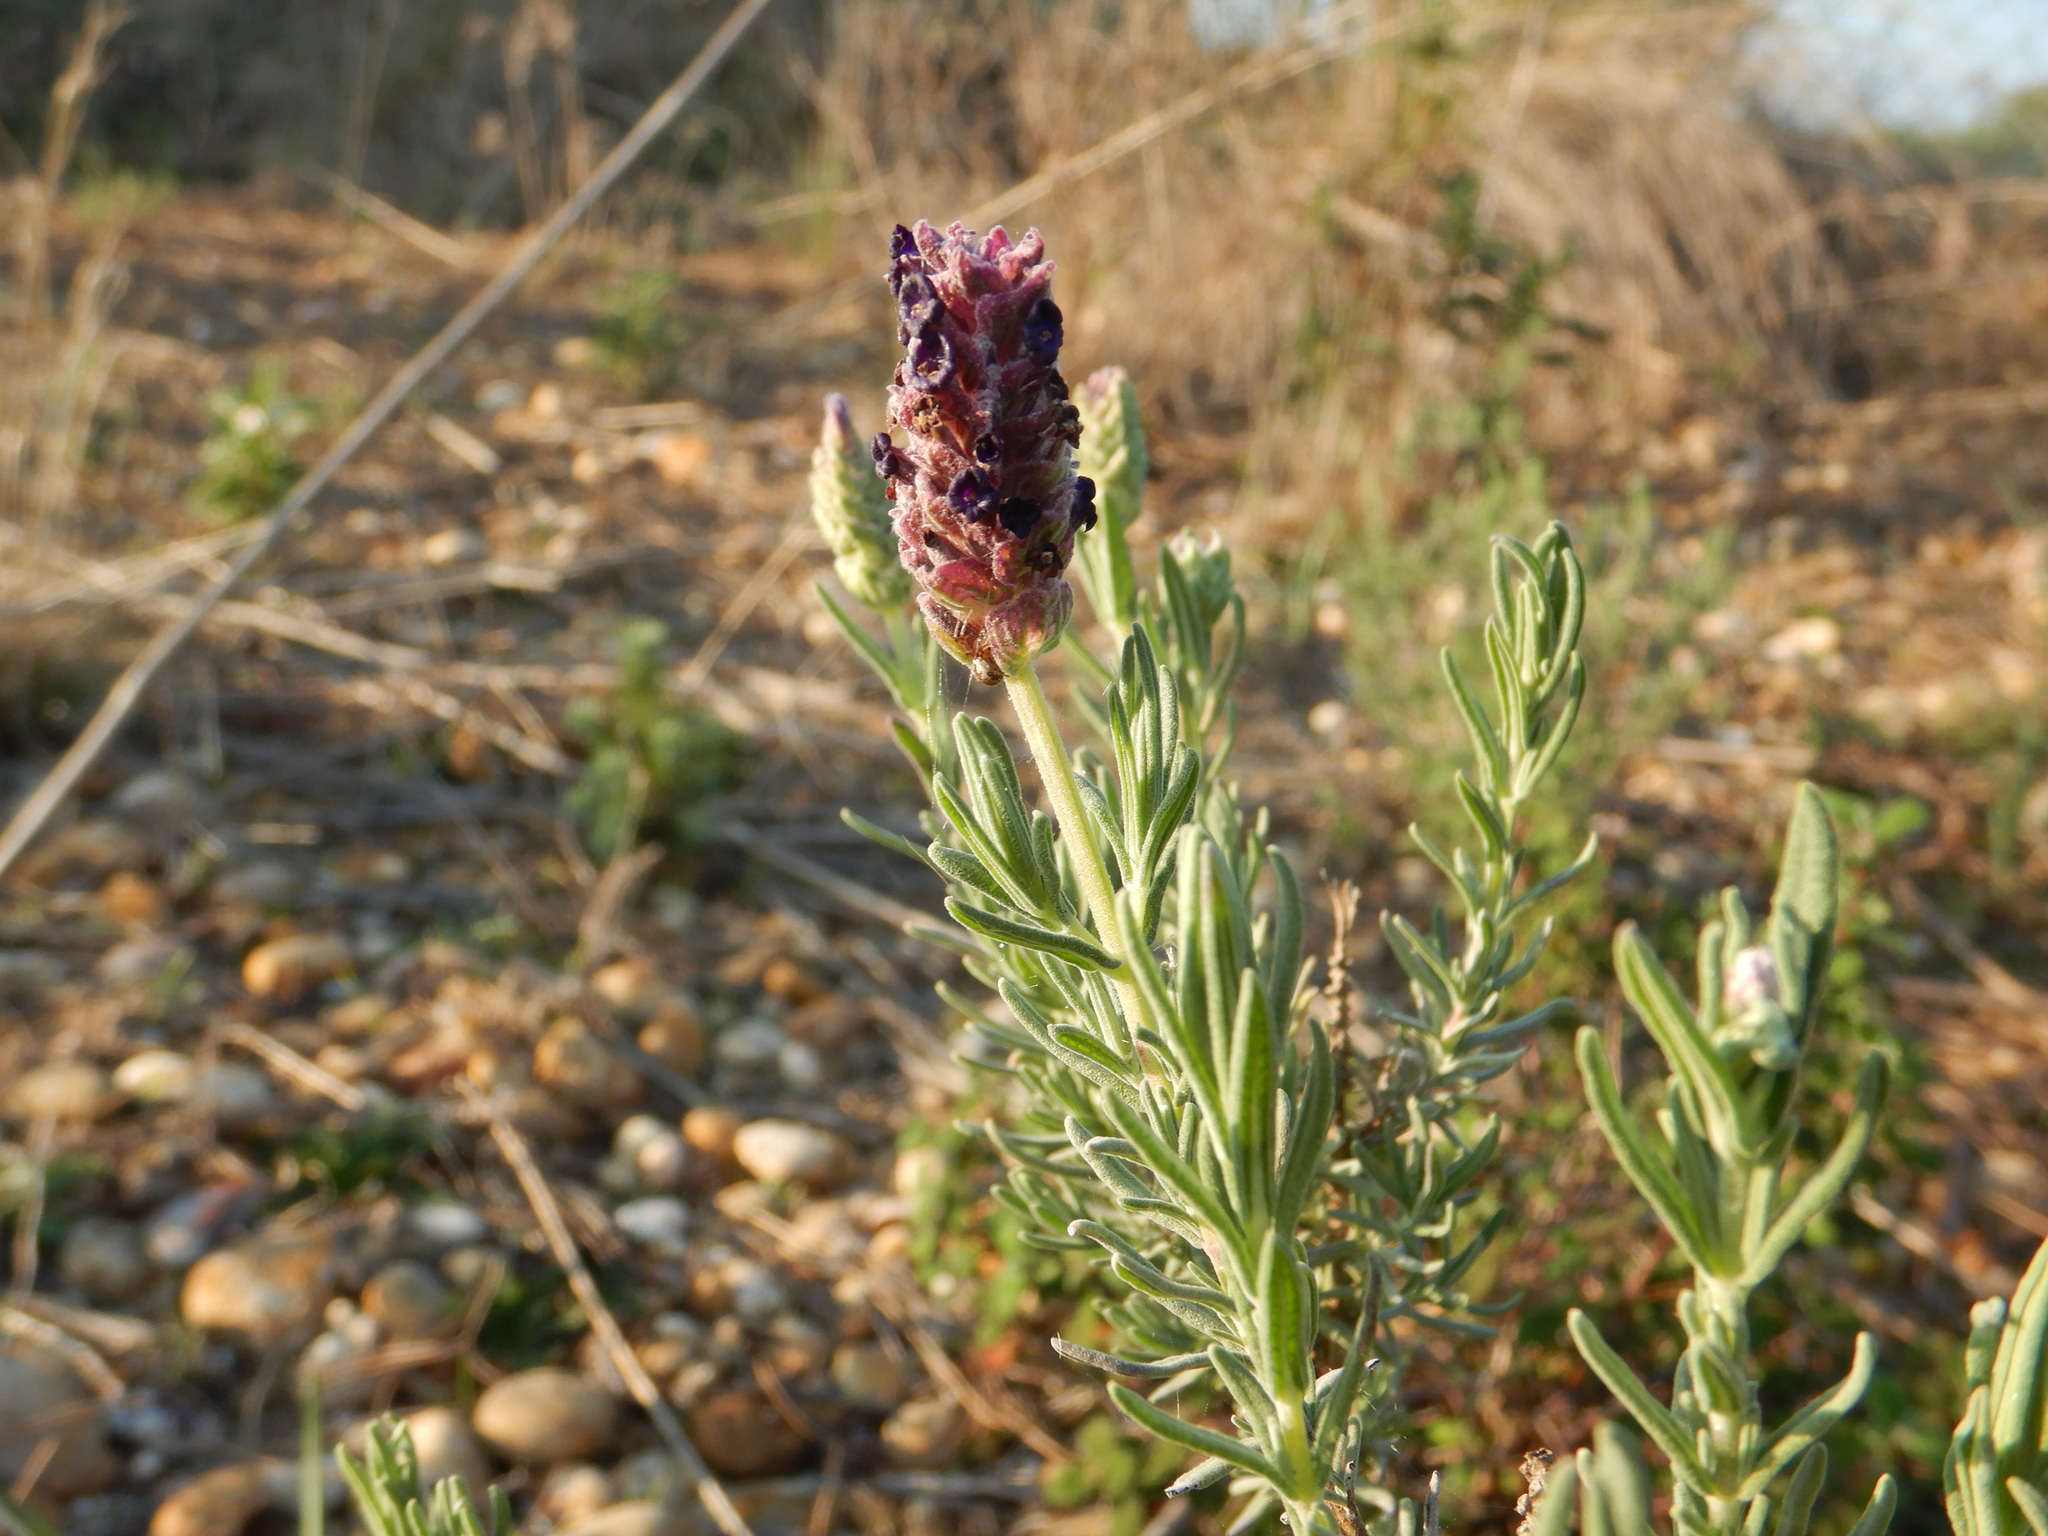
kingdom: Plantae
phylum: Tracheophyta
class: Magnoliopsida
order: Lamiales
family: Lamiaceae
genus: Lavandula
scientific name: Lavandula stoechas
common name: French lavender
